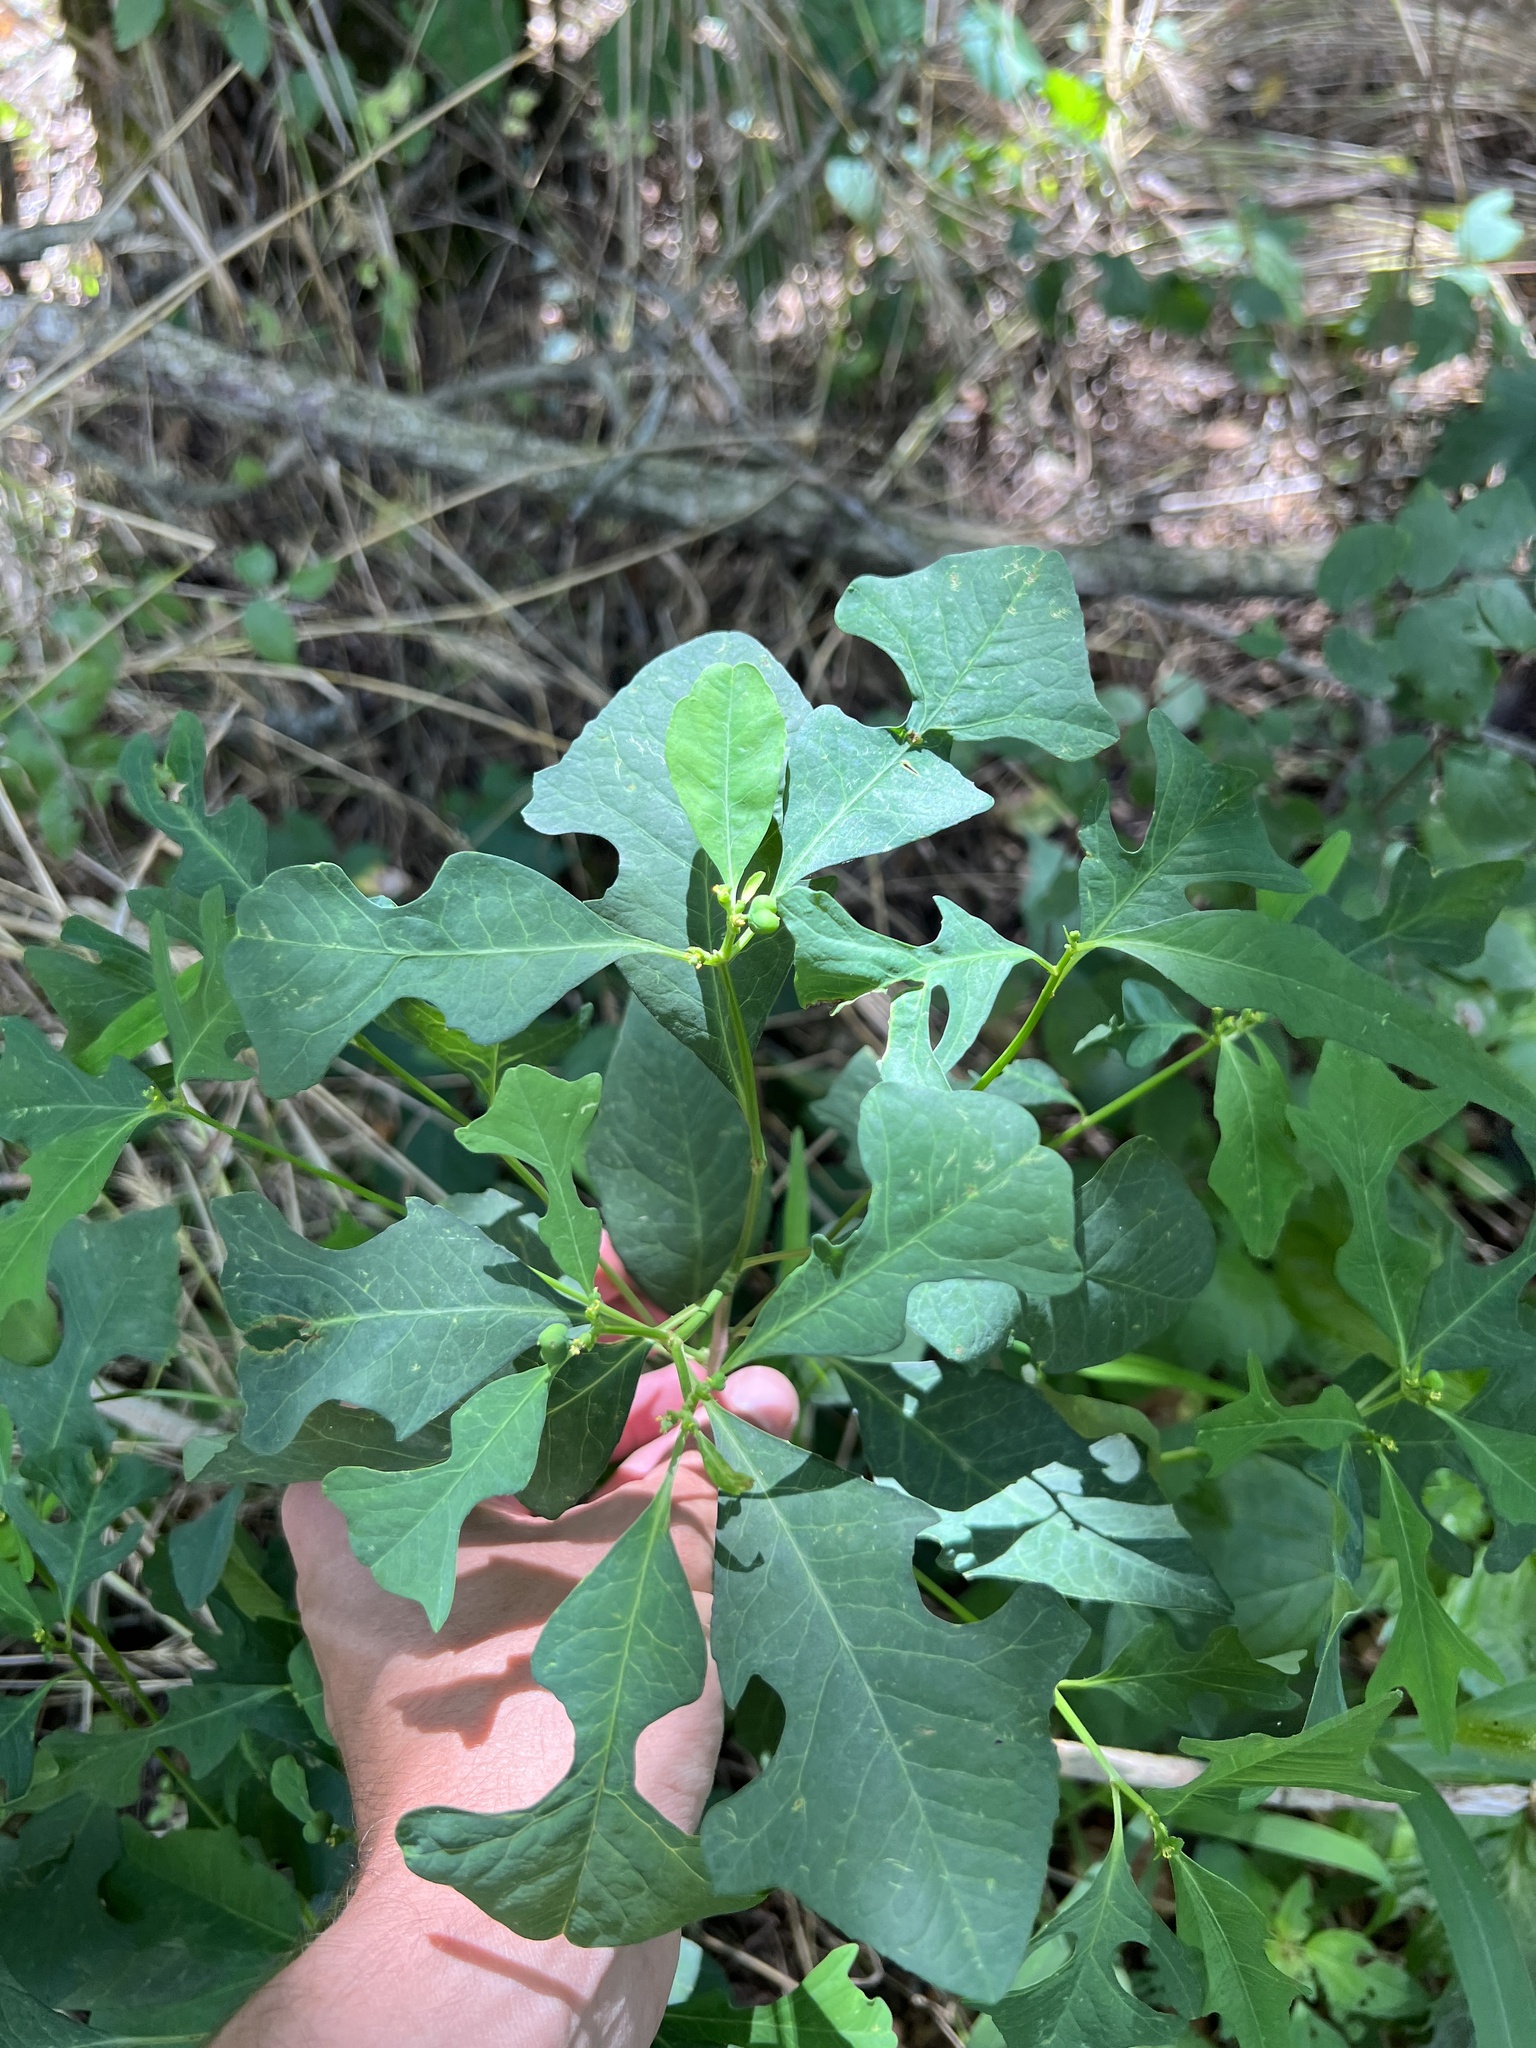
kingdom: Plantae
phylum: Tracheophyta
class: Magnoliopsida
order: Malpighiales
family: Euphorbiaceae
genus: Euphorbia
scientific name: Euphorbia heterophylla
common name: Mexican fireplant
